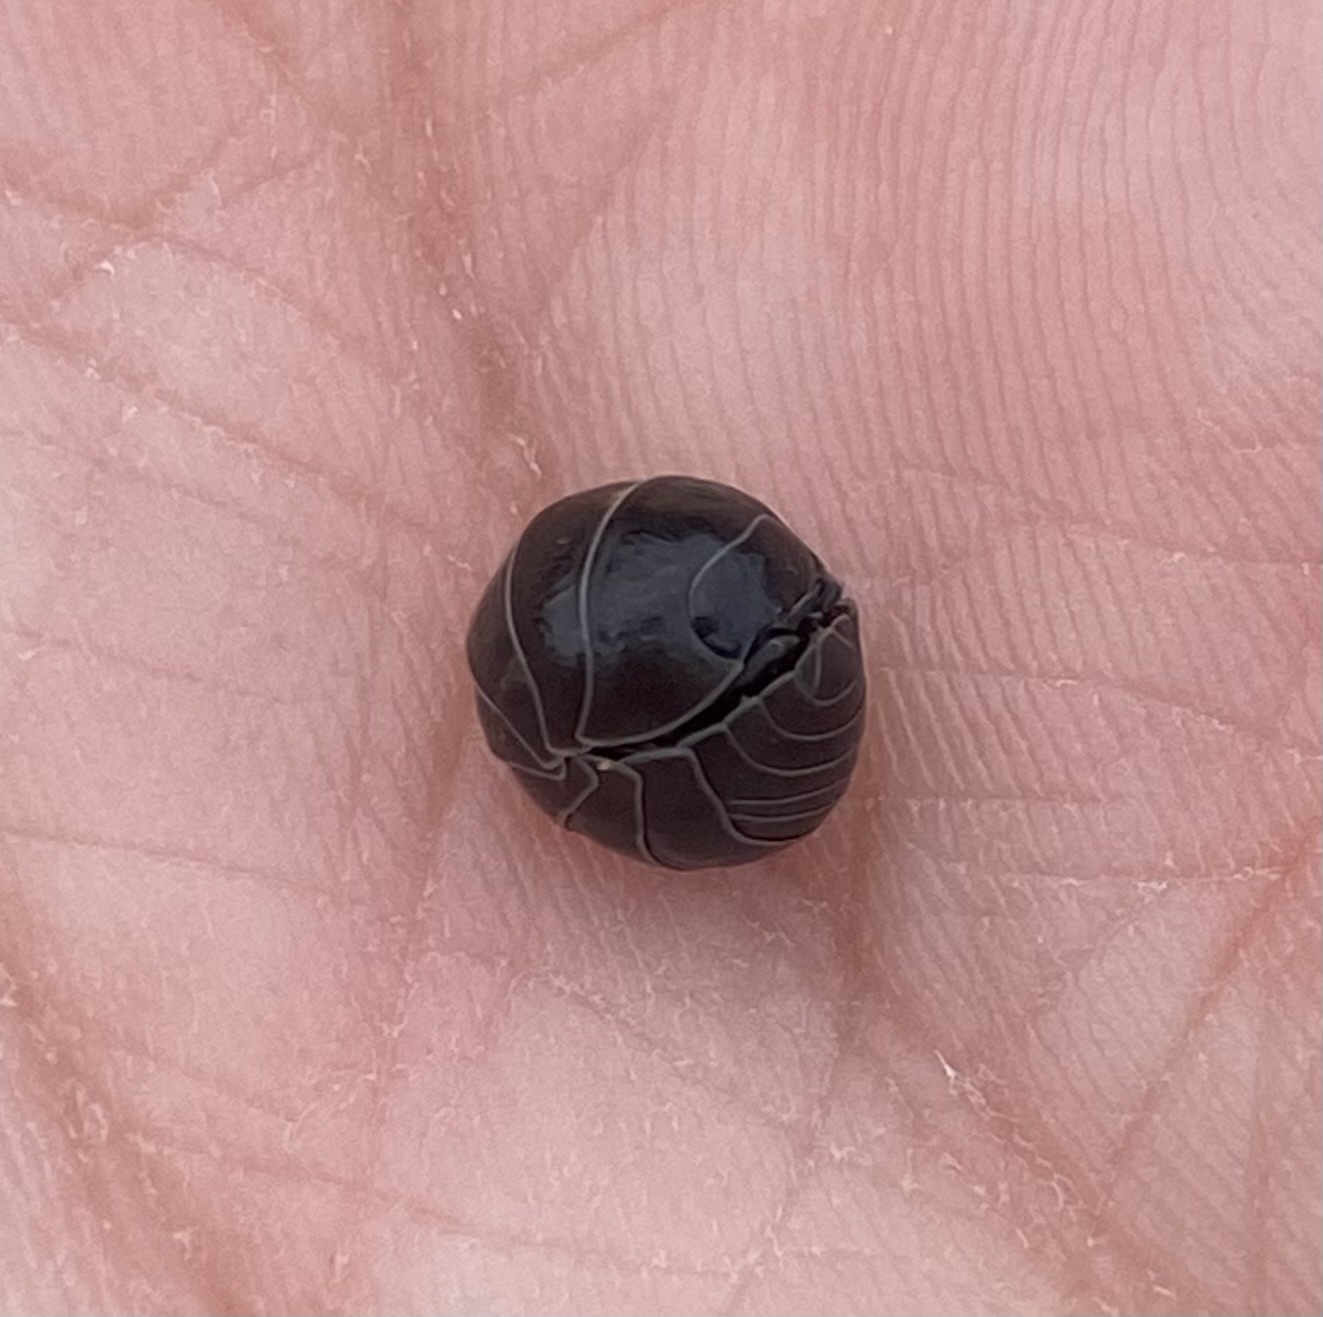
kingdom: Animalia
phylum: Arthropoda
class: Malacostraca
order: Isopoda
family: Armadillidiidae
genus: Armadillidium
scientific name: Armadillidium vulgare
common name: Common pill woodlouse
